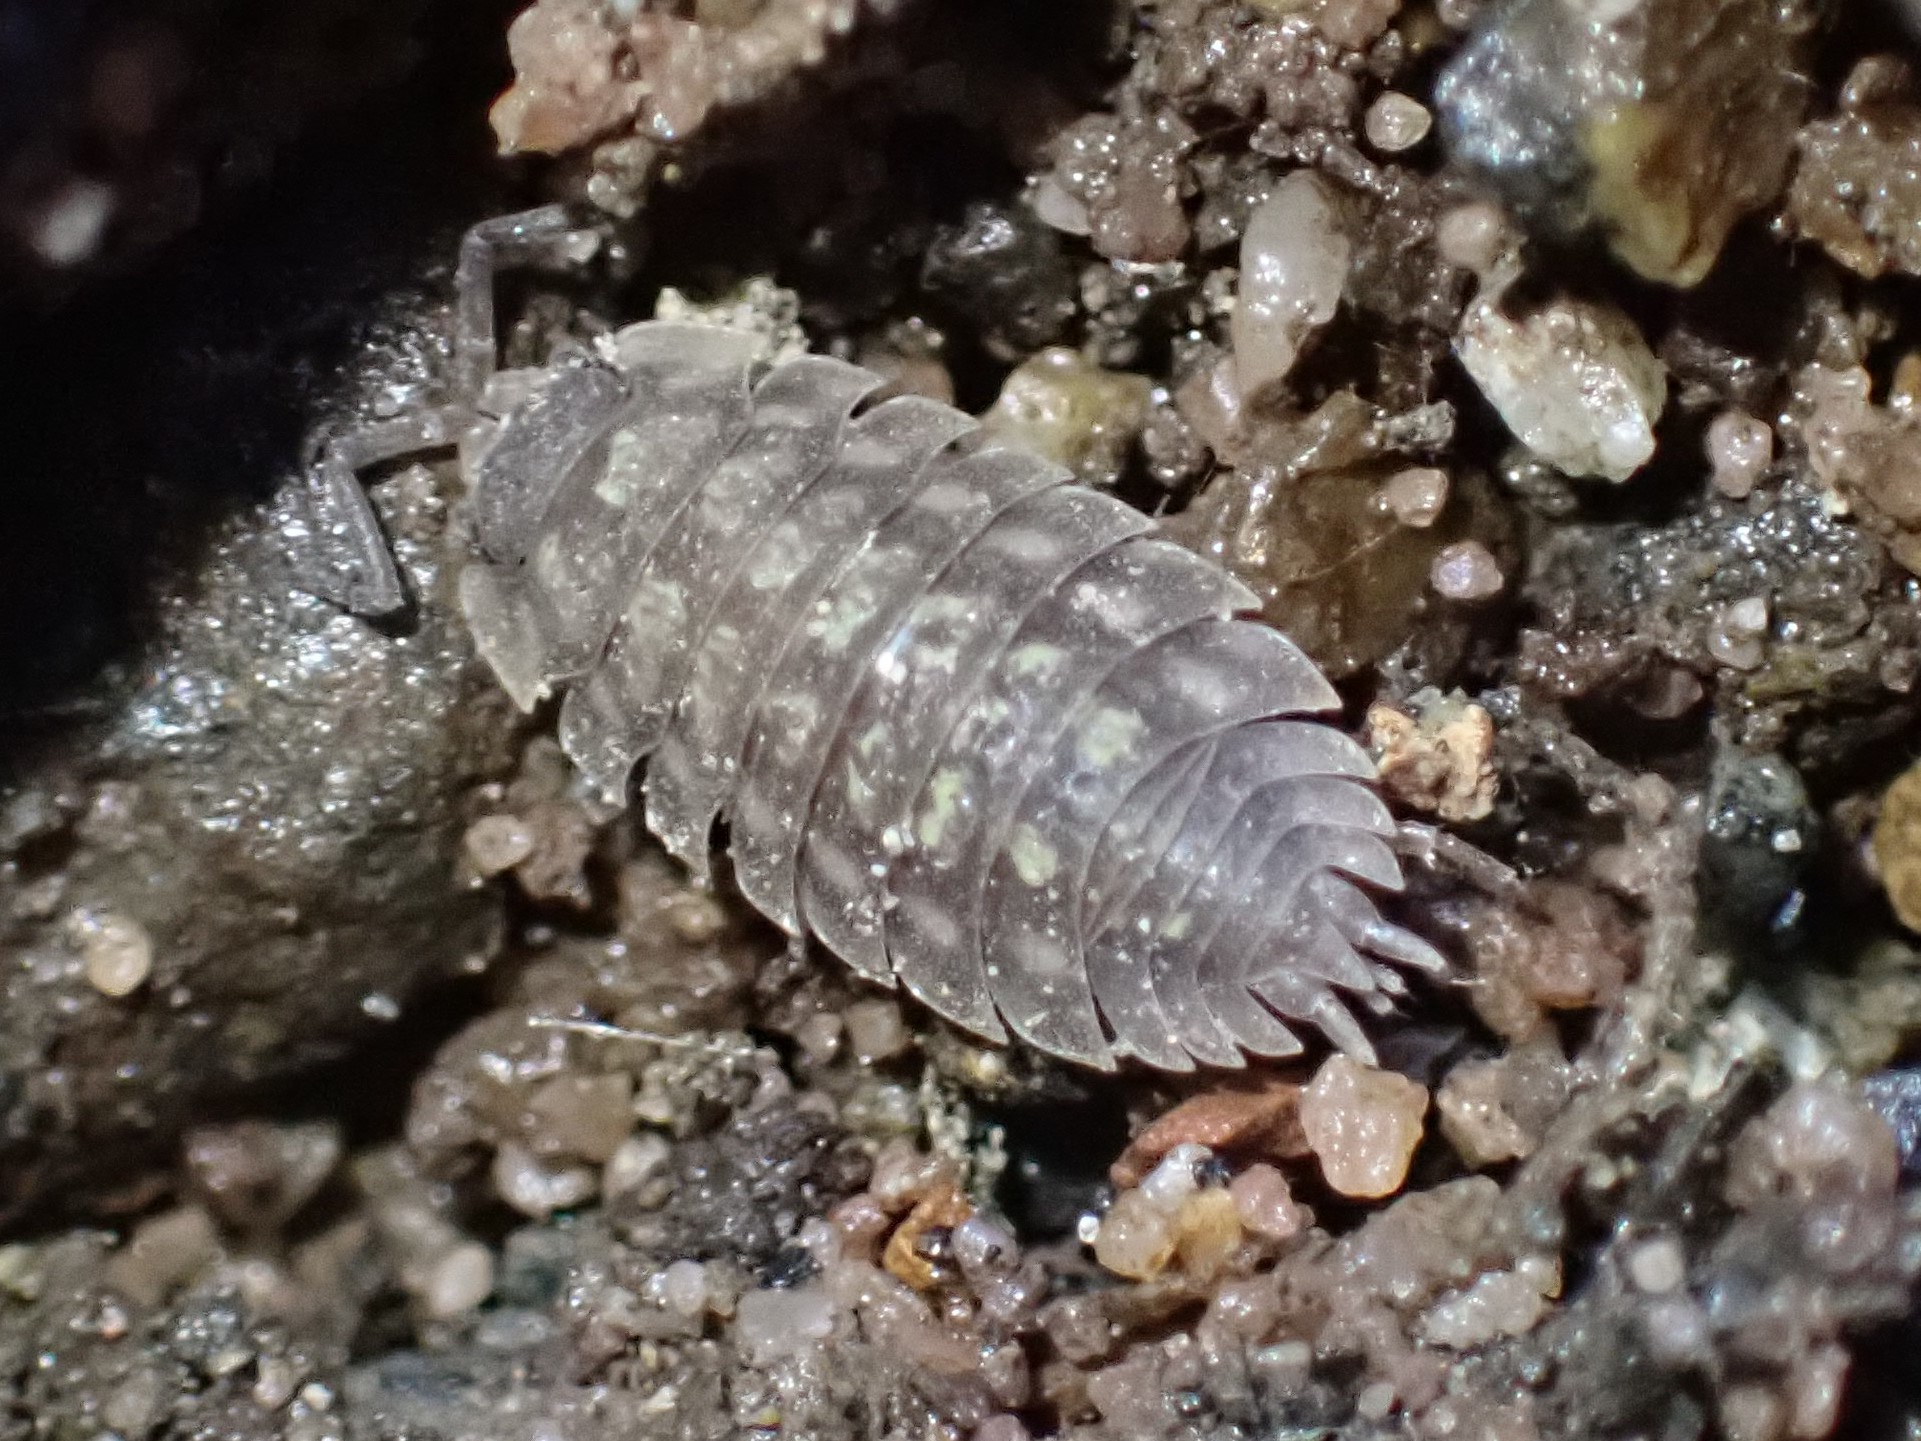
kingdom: Animalia
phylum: Arthropoda
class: Malacostraca
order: Isopoda
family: Oniscidae
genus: Oniscus
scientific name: Oniscus asellus
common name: Common shiny woodlouse
